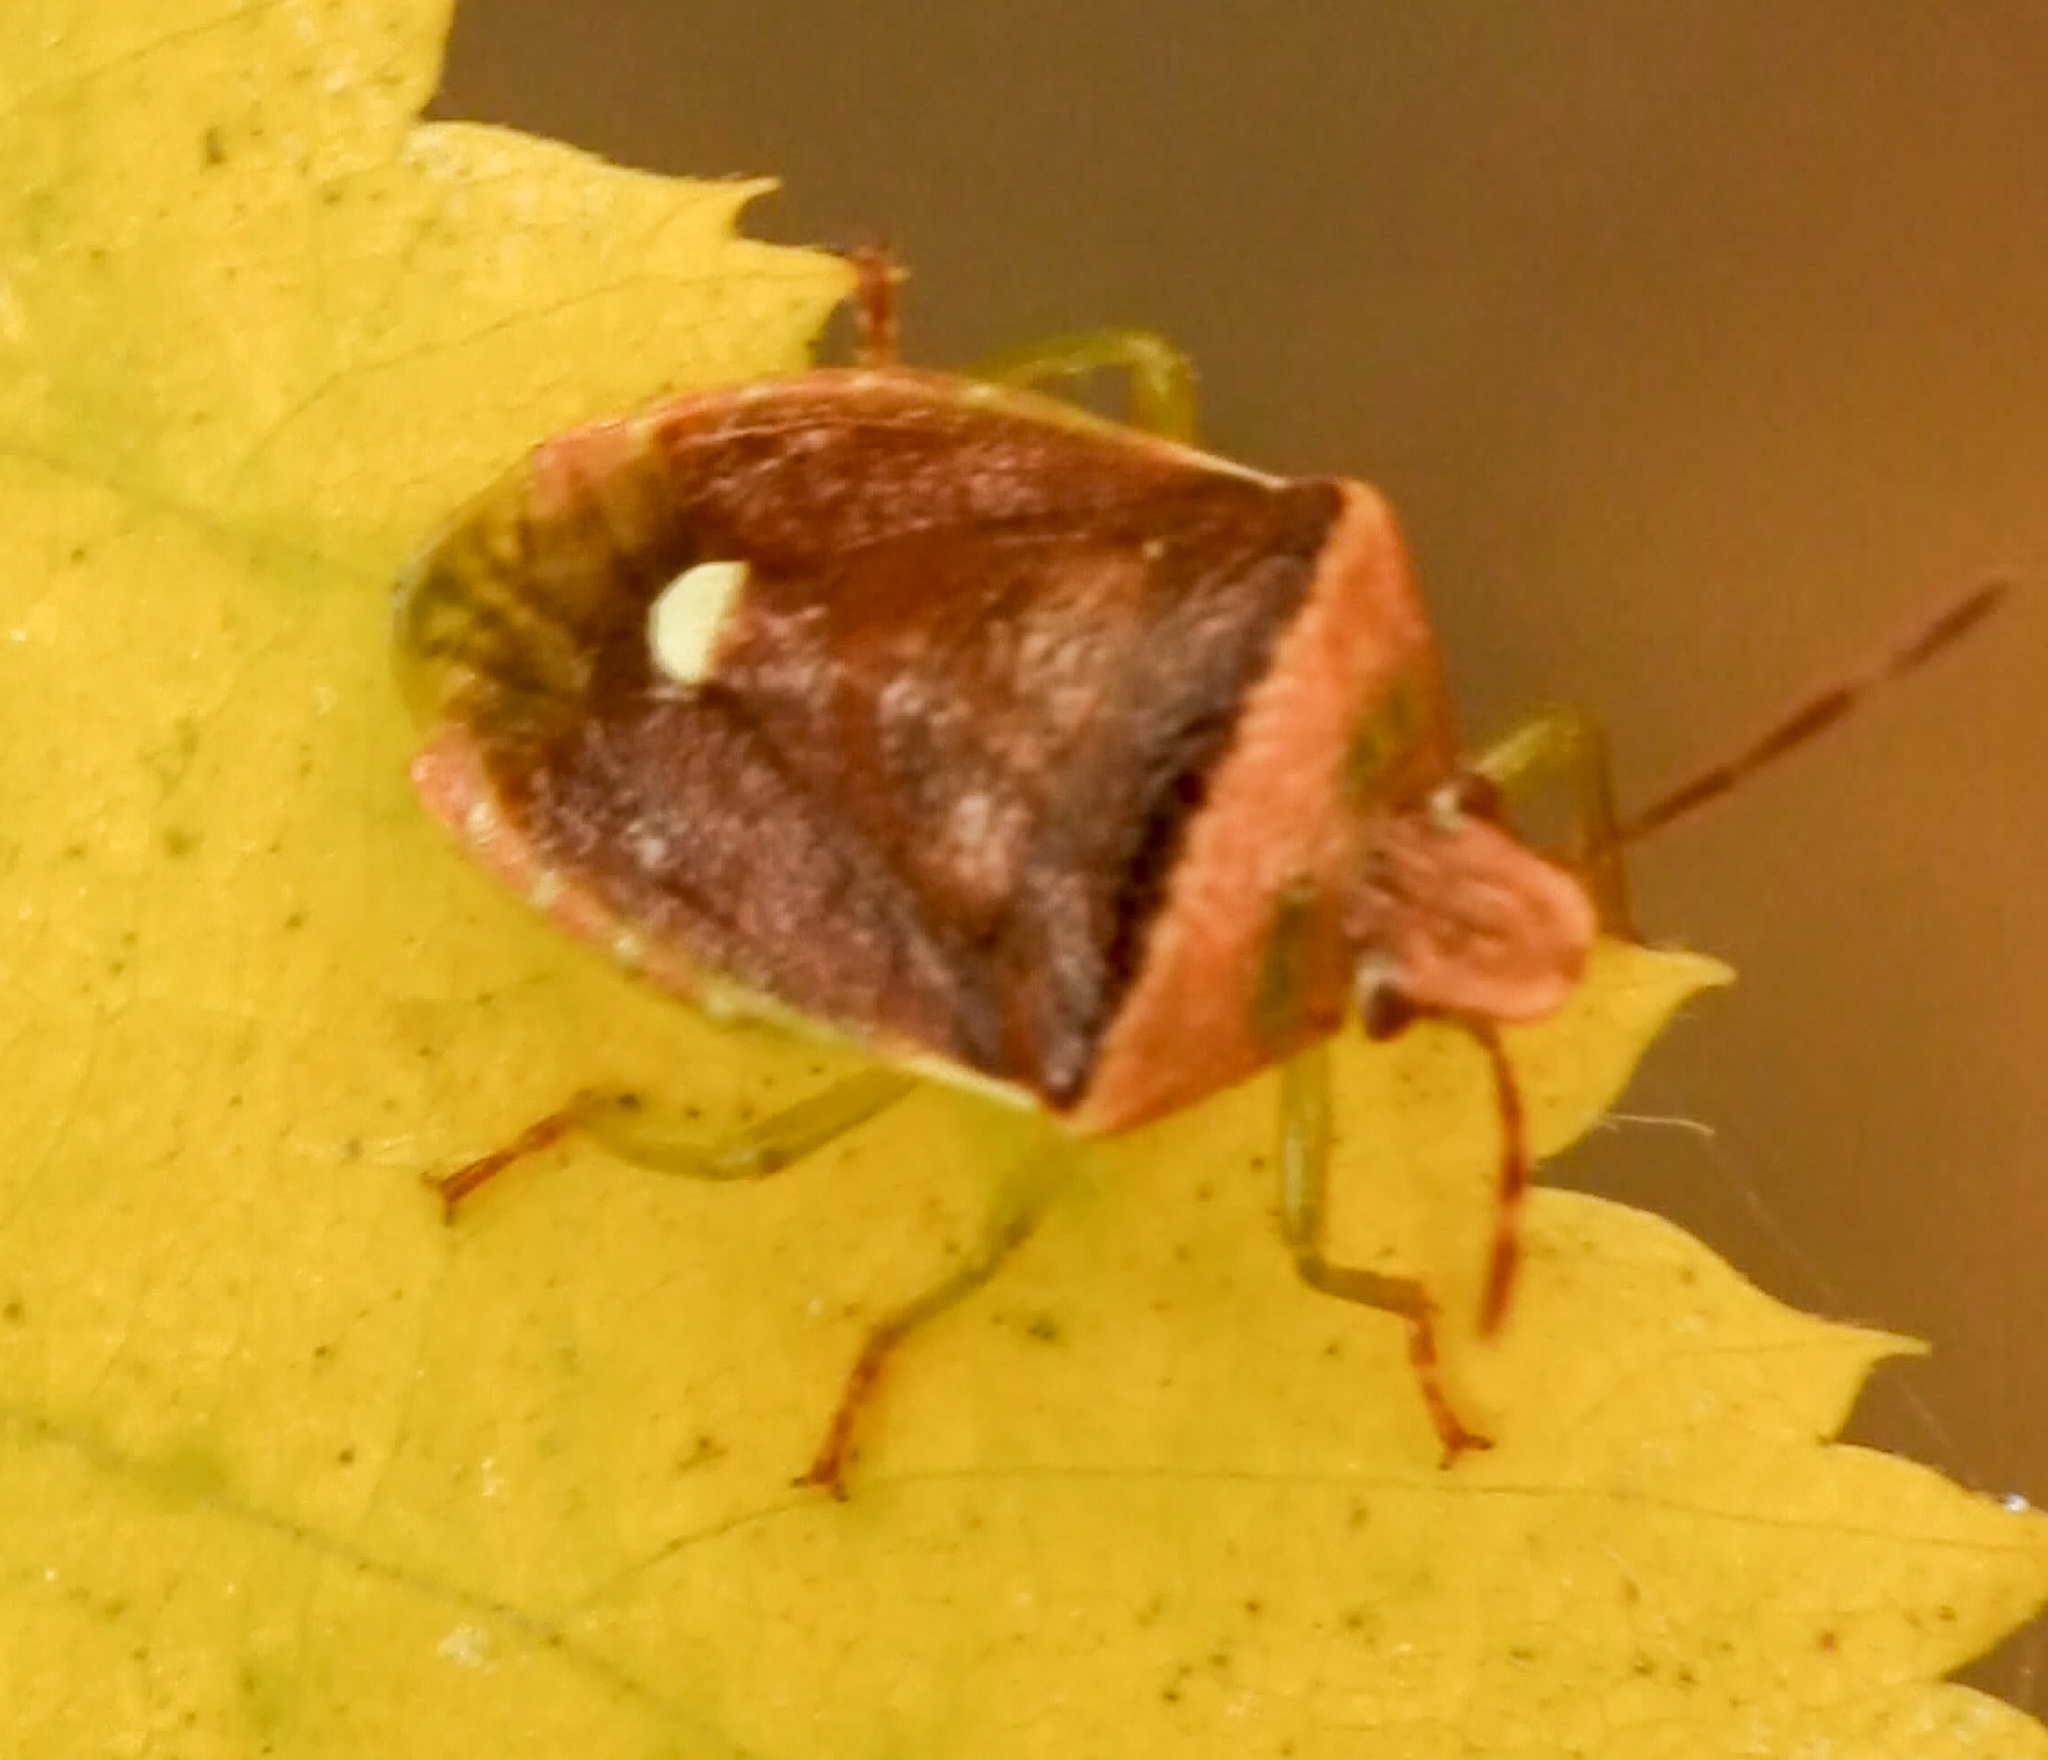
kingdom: Animalia
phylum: Arthropoda
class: Insecta
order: Hemiptera
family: Pentatomidae
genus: Banasa
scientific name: Banasa calva
